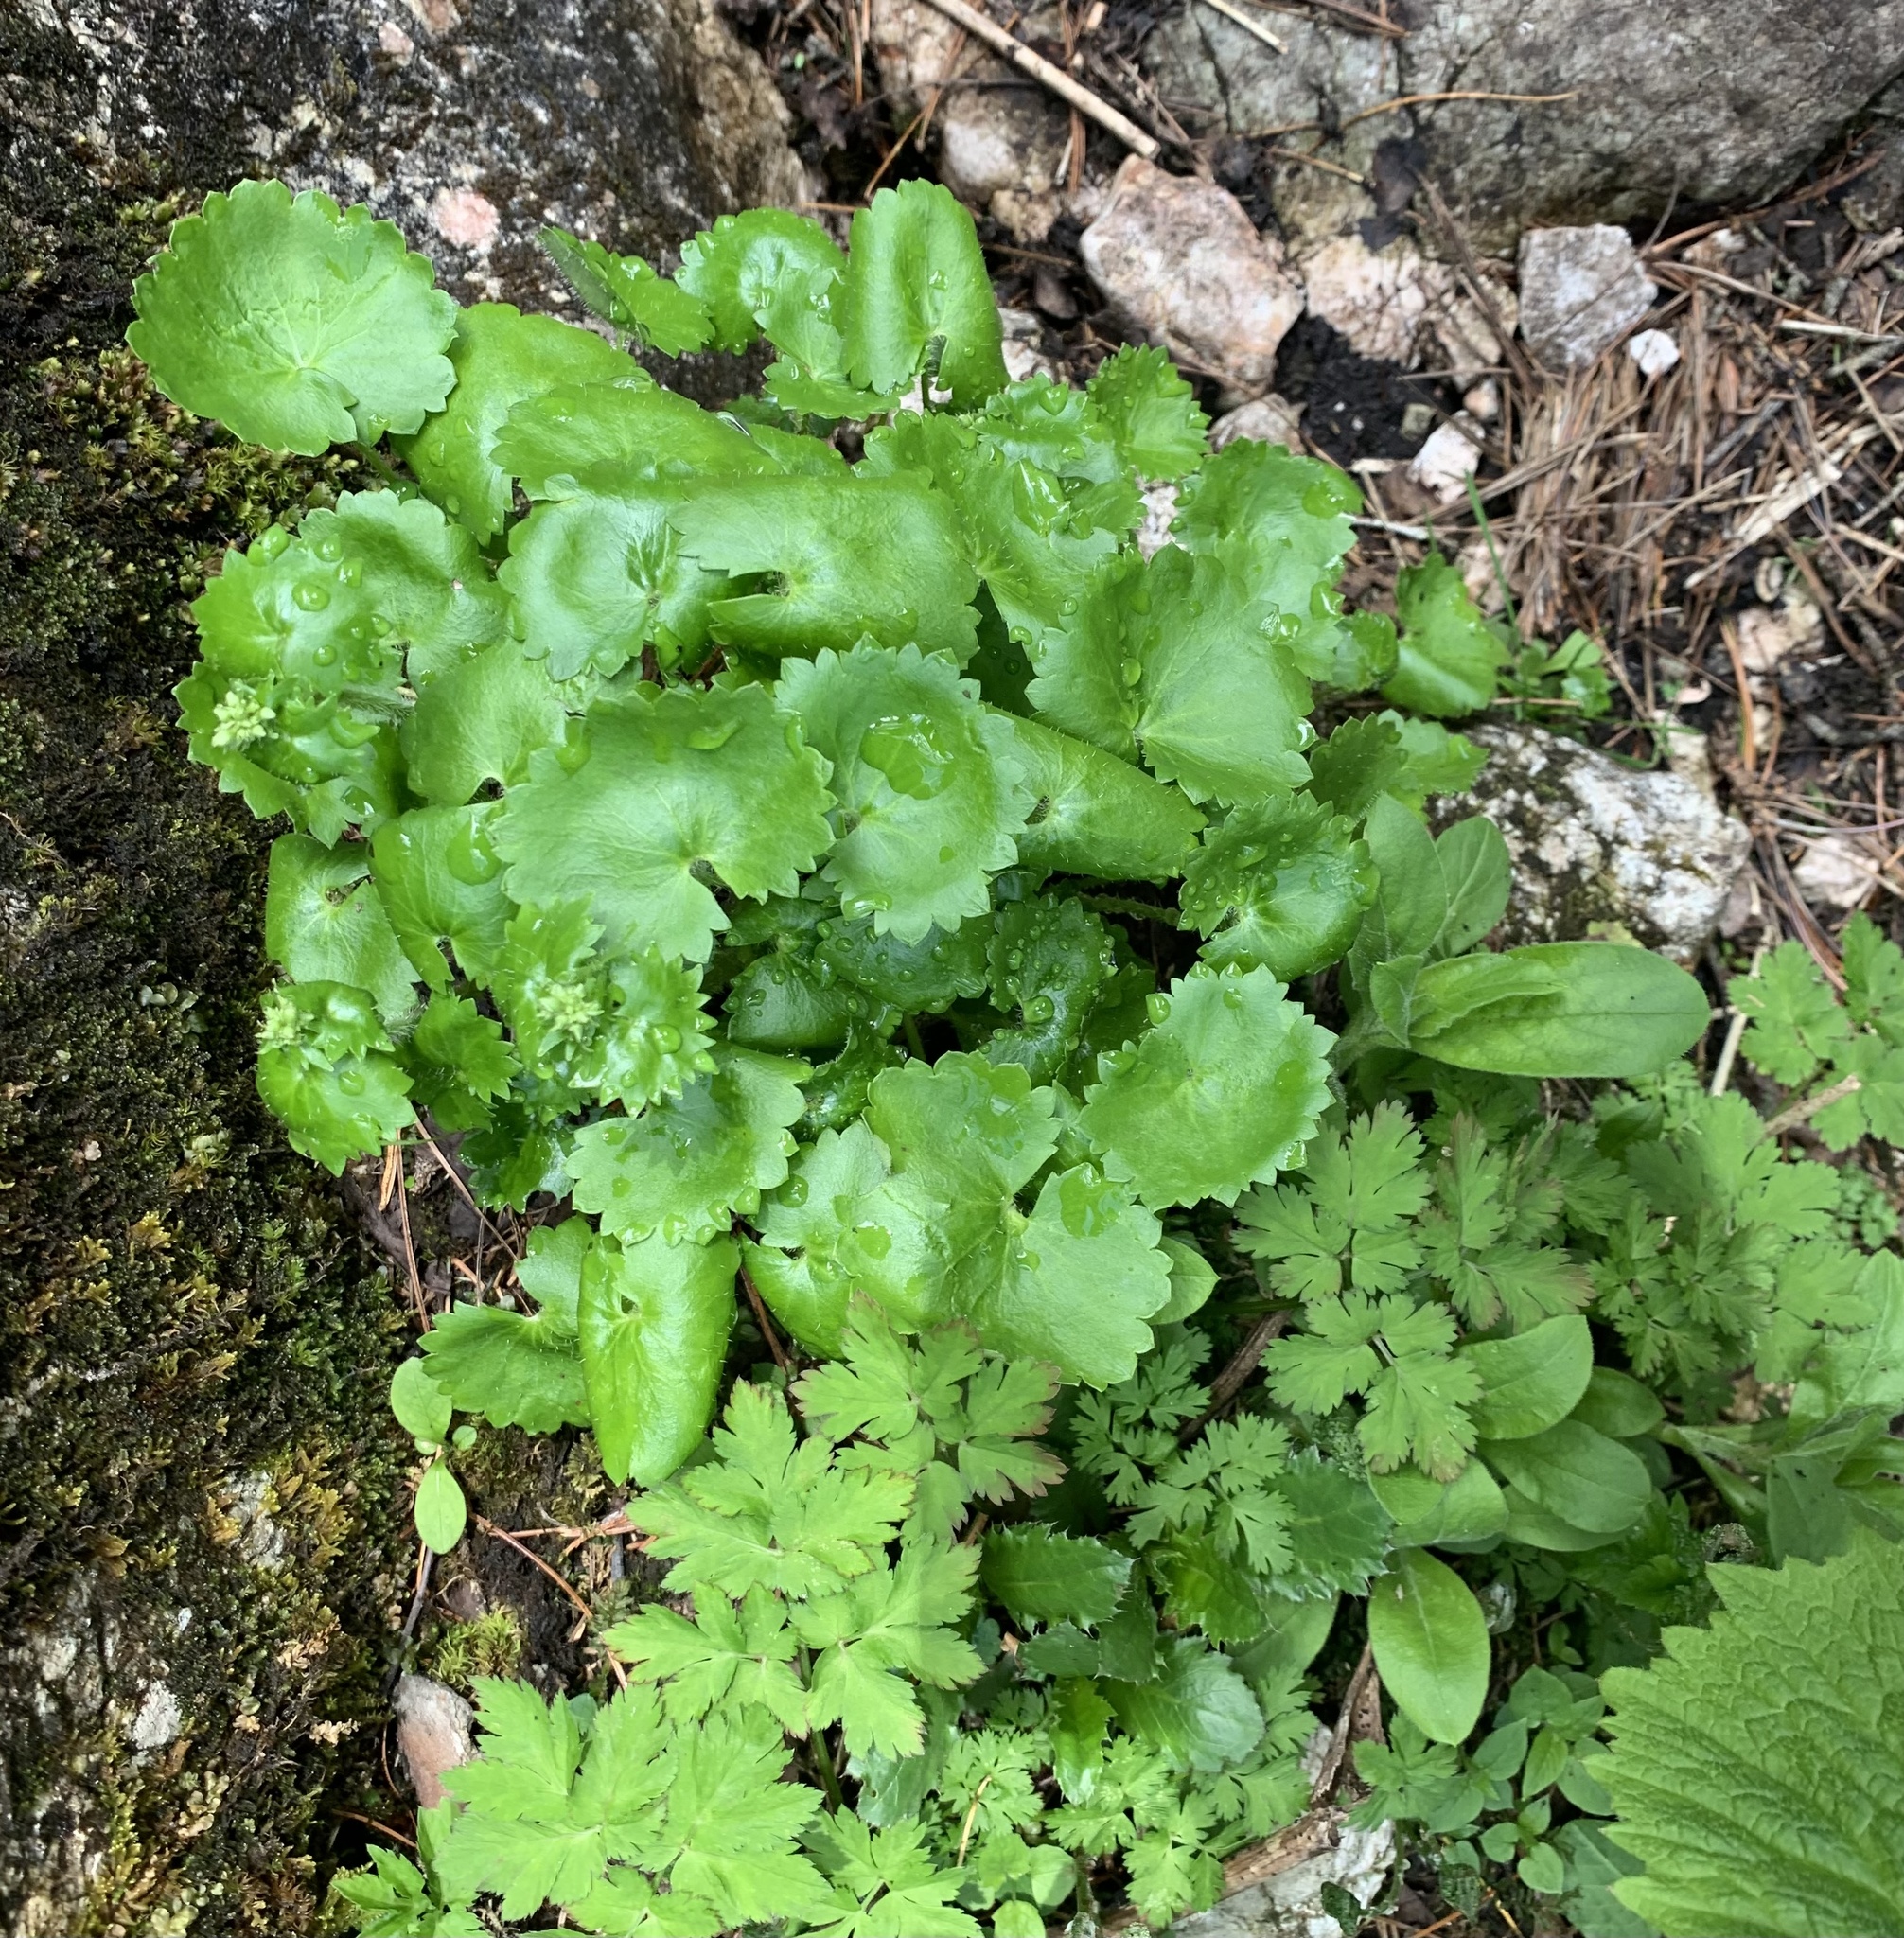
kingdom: Plantae
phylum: Tracheophyta
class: Magnoliopsida
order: Saxifragales
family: Saxifragaceae
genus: Saxifraga
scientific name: Saxifraga rotundifolia
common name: Round-leaved saxifrage
